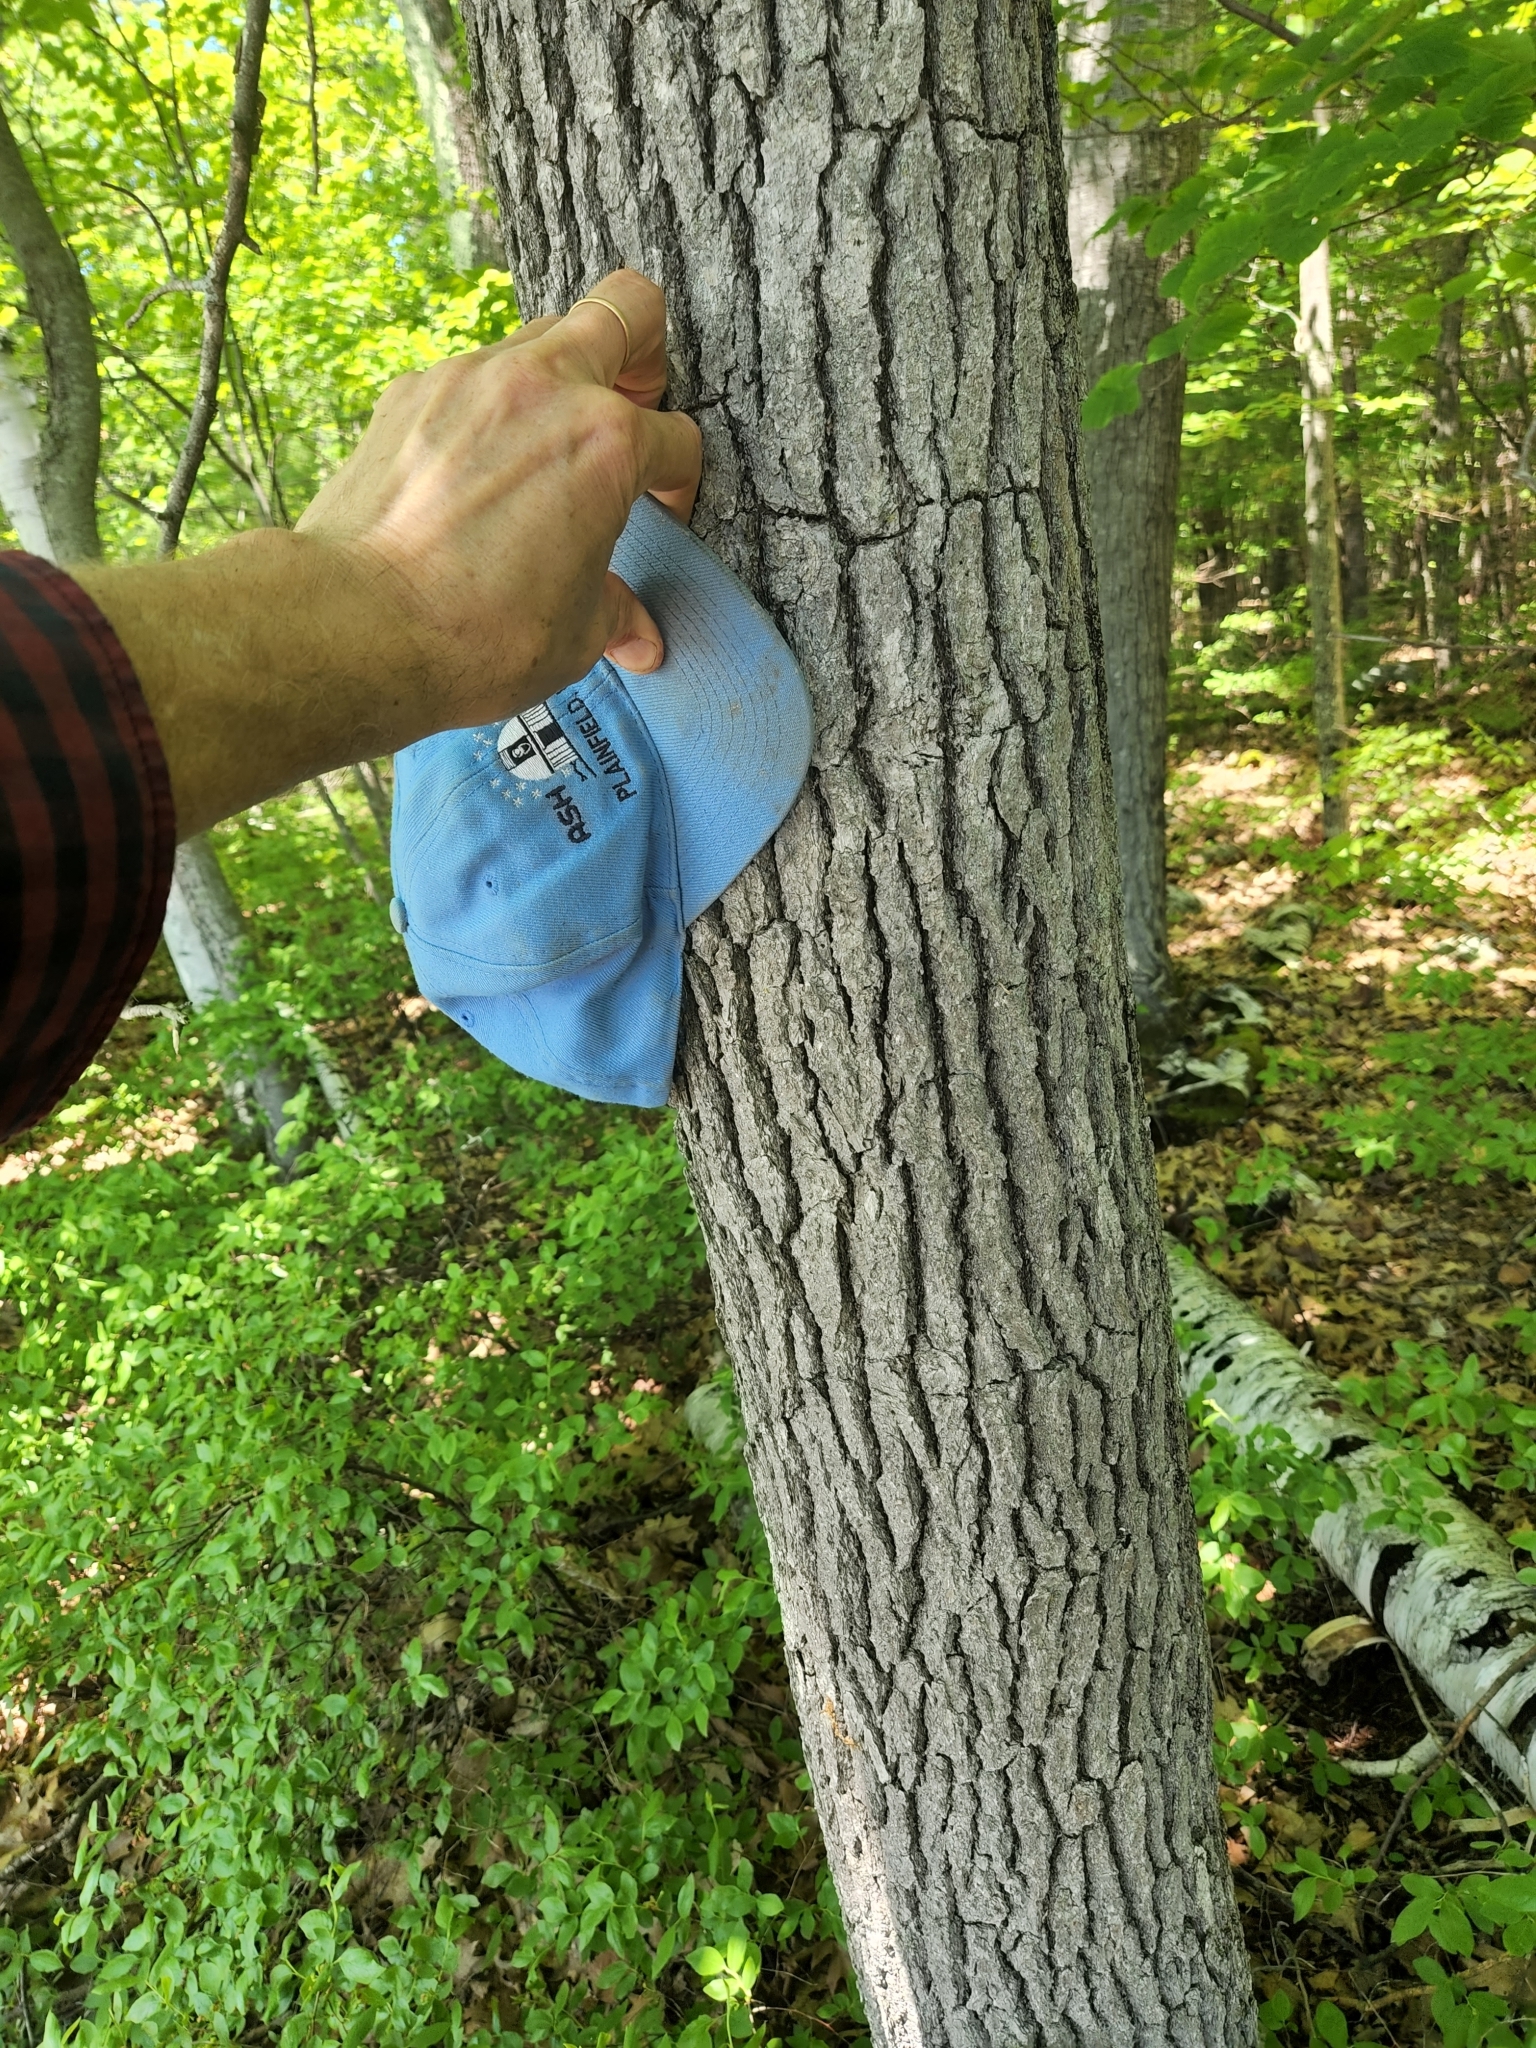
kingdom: Plantae
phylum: Tracheophyta
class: Magnoliopsida
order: Cornales
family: Nyssaceae
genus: Nyssa
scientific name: Nyssa sylvatica
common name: Black tupelo
